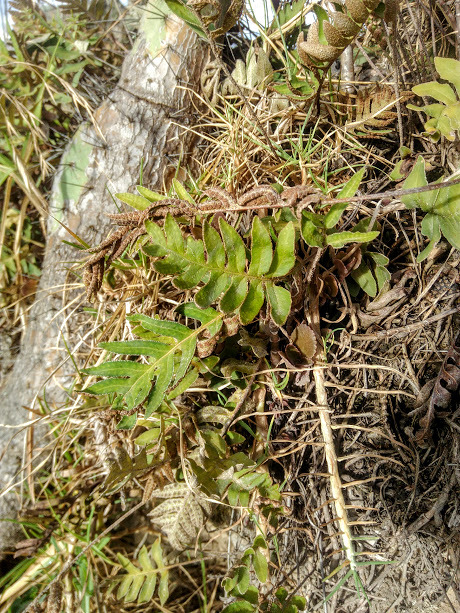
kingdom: Plantae
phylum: Tracheophyta
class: Polypodiopsida
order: Polypodiales
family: Polypodiaceae
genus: Pleopeltis
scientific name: Pleopeltis thyssanolepis
